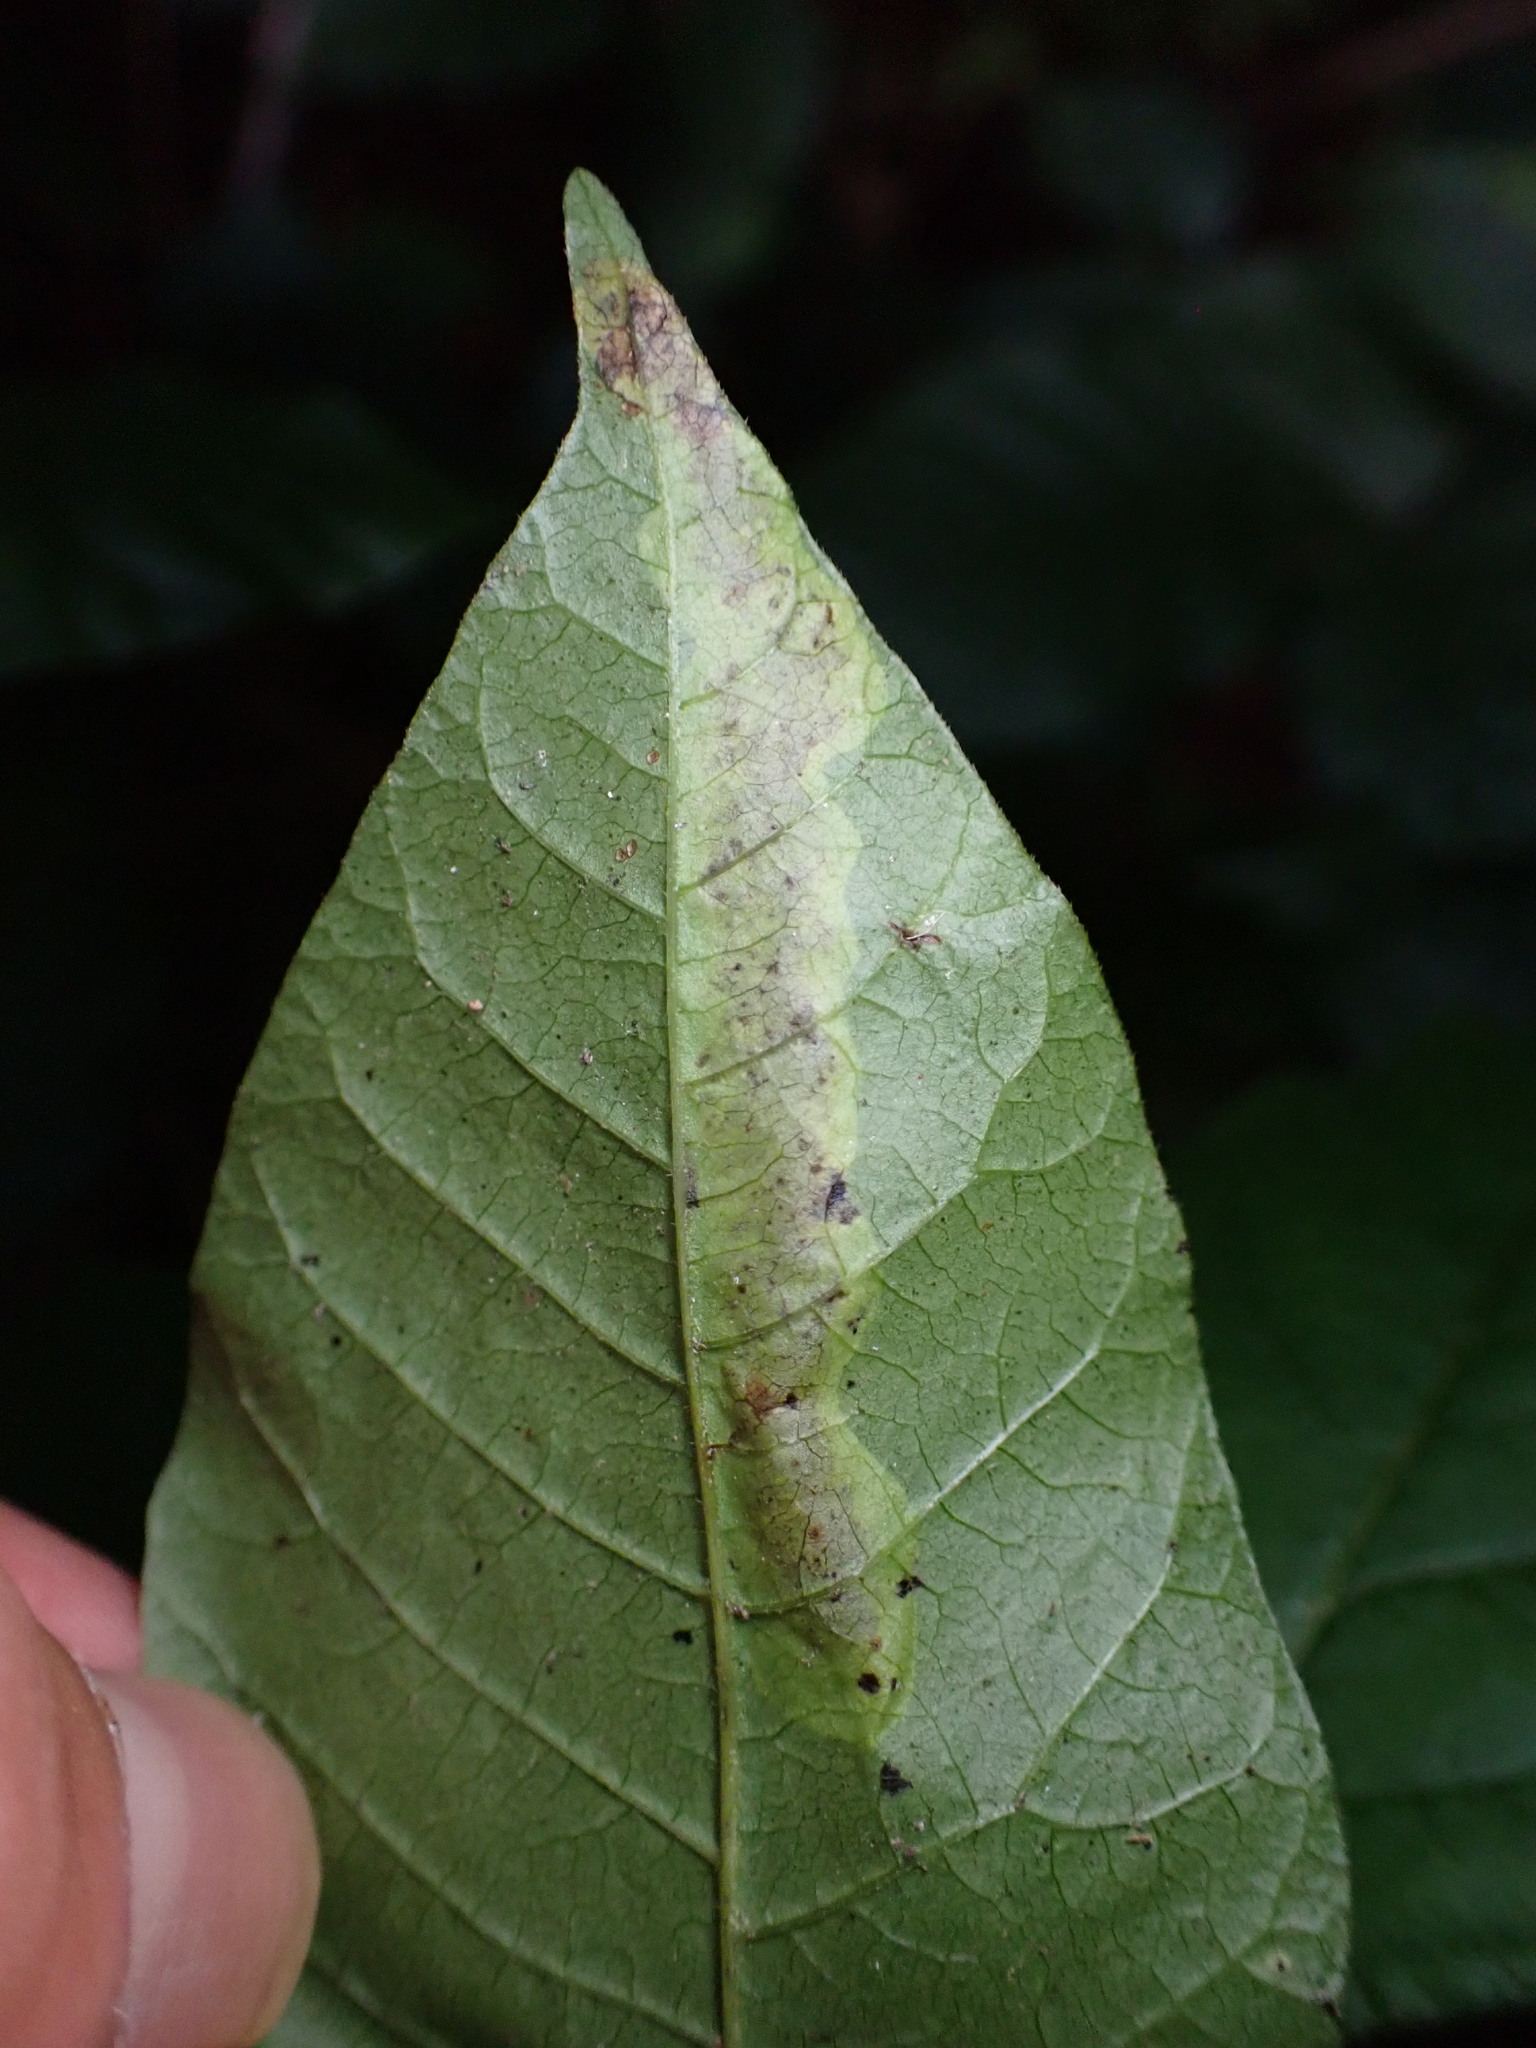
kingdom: Animalia
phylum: Arthropoda
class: Insecta
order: Lepidoptera
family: Gracillariidae
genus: Cameraria
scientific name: Cameraria guttifinitella
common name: Poison ivy leaf-miner moth
